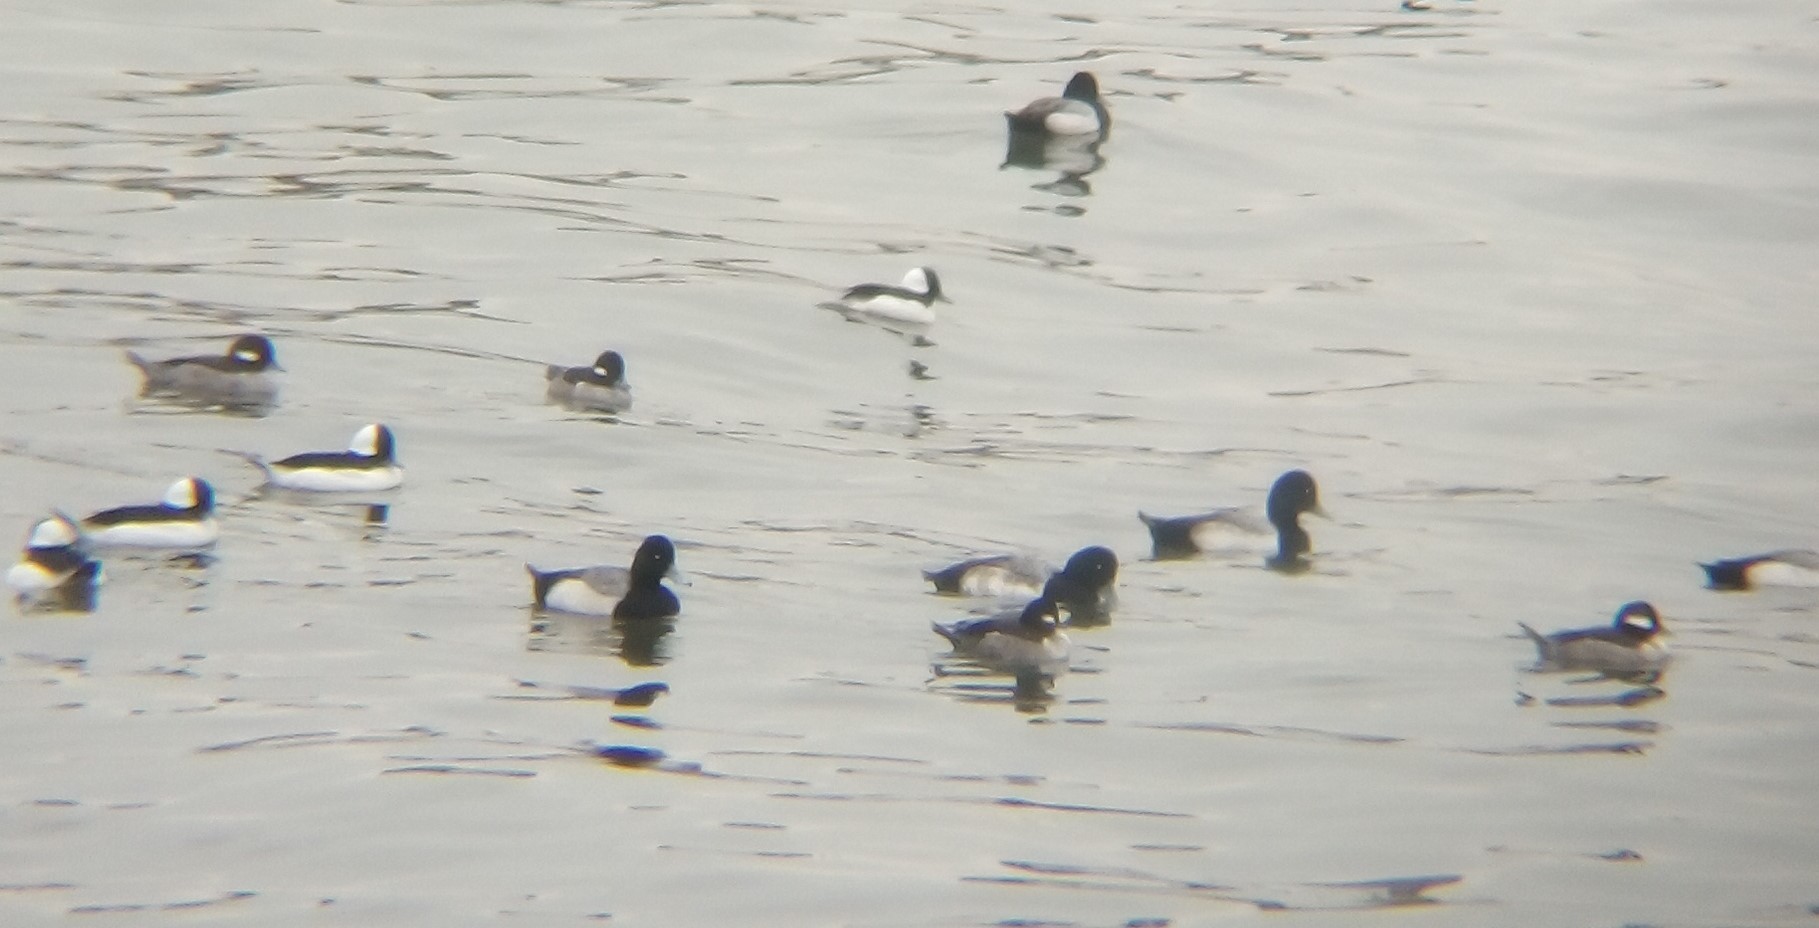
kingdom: Animalia
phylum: Chordata
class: Aves
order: Anseriformes
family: Anatidae
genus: Aythya
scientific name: Aythya affinis
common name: Lesser scaup
